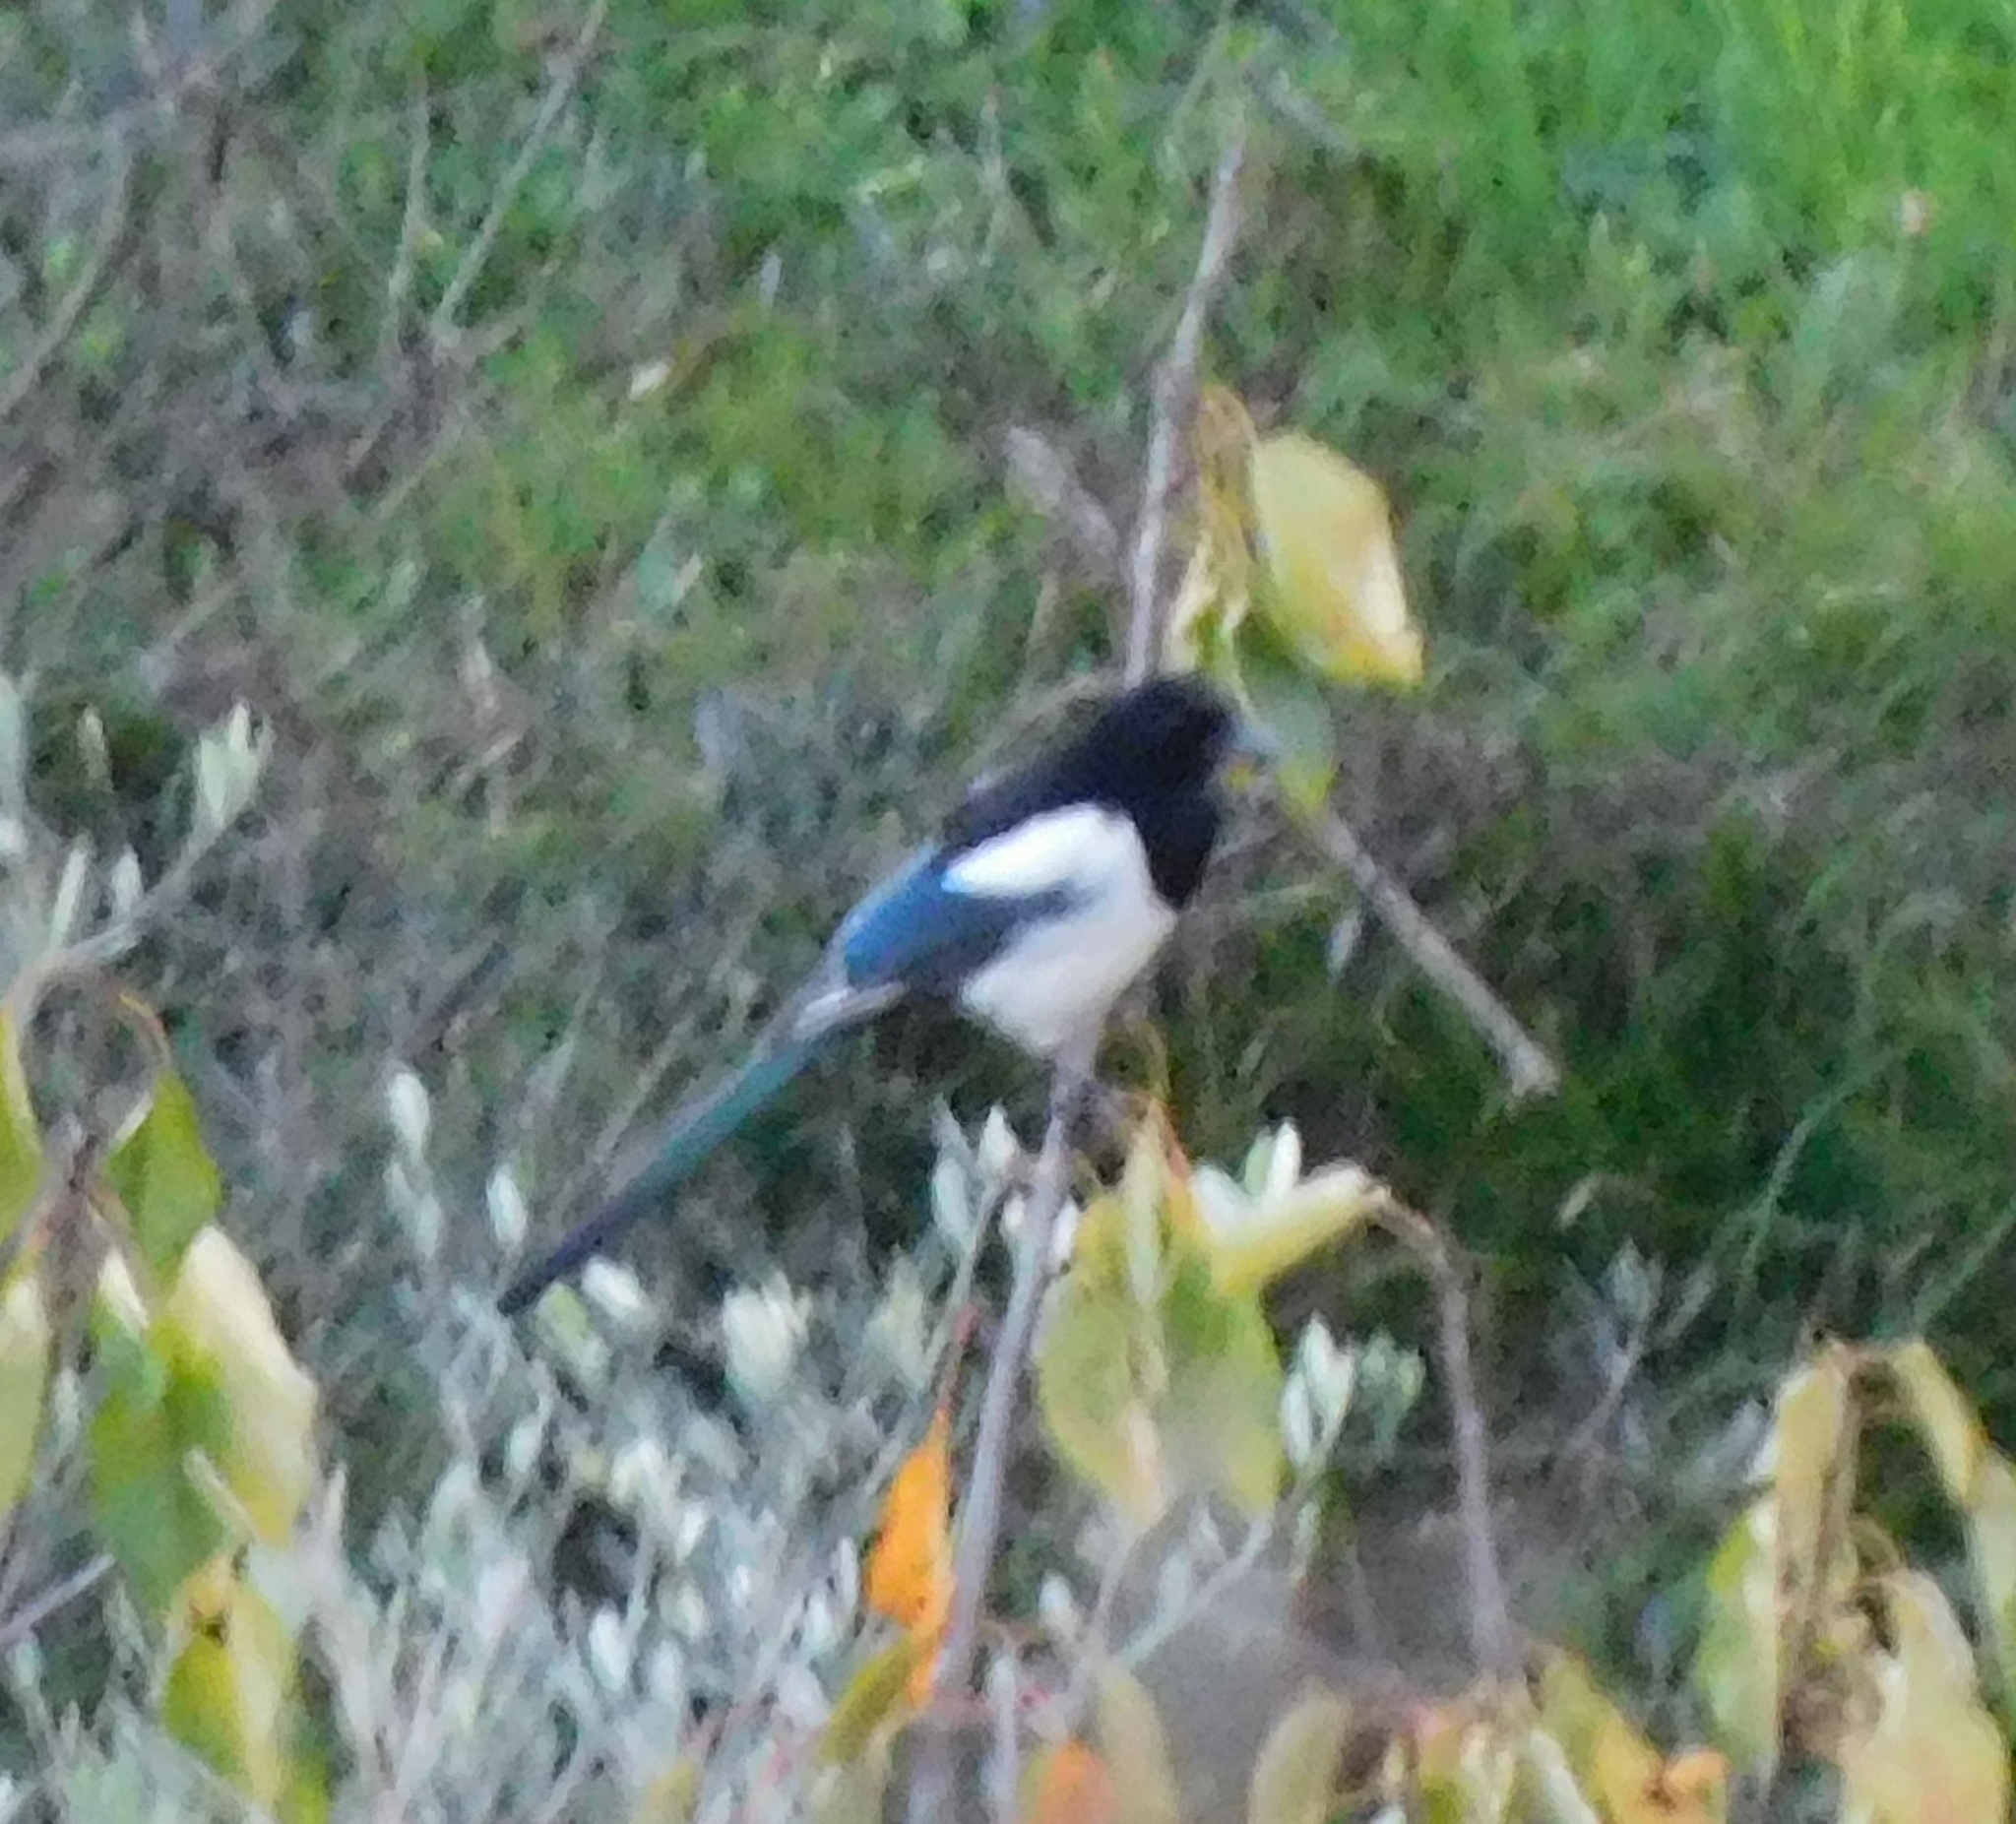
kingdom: Animalia
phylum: Chordata
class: Aves
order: Passeriformes
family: Corvidae
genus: Pica
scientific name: Pica pica
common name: Eurasian magpie
